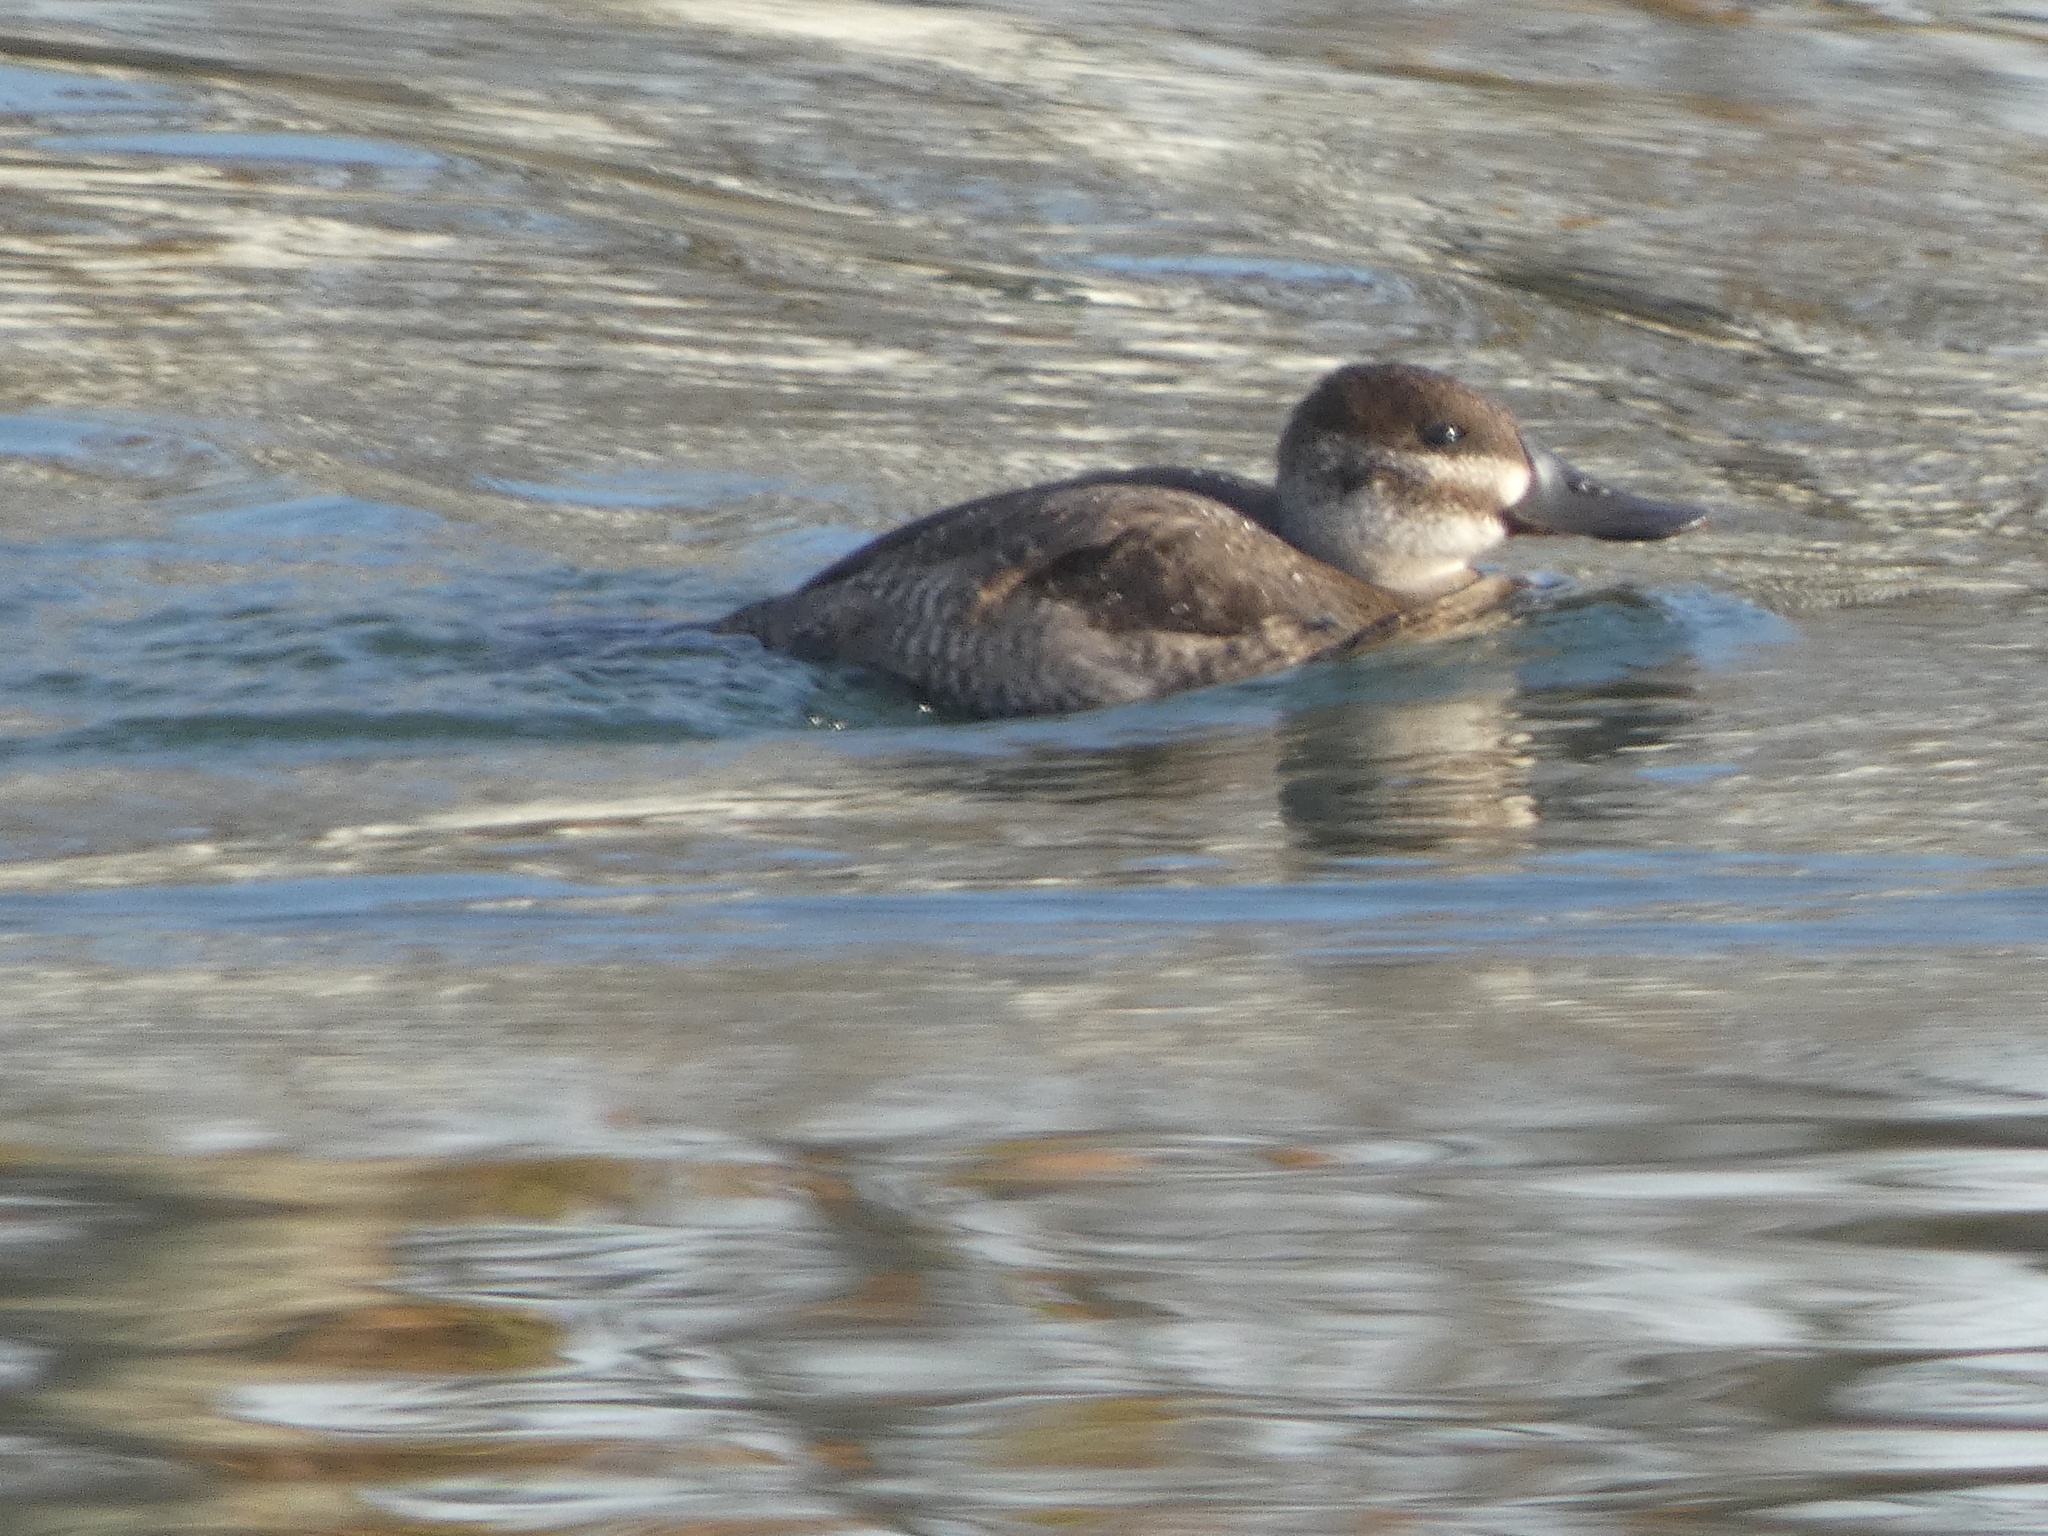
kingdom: Animalia
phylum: Chordata
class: Aves
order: Anseriformes
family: Anatidae
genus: Oxyura
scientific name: Oxyura jamaicensis
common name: Ruddy duck
